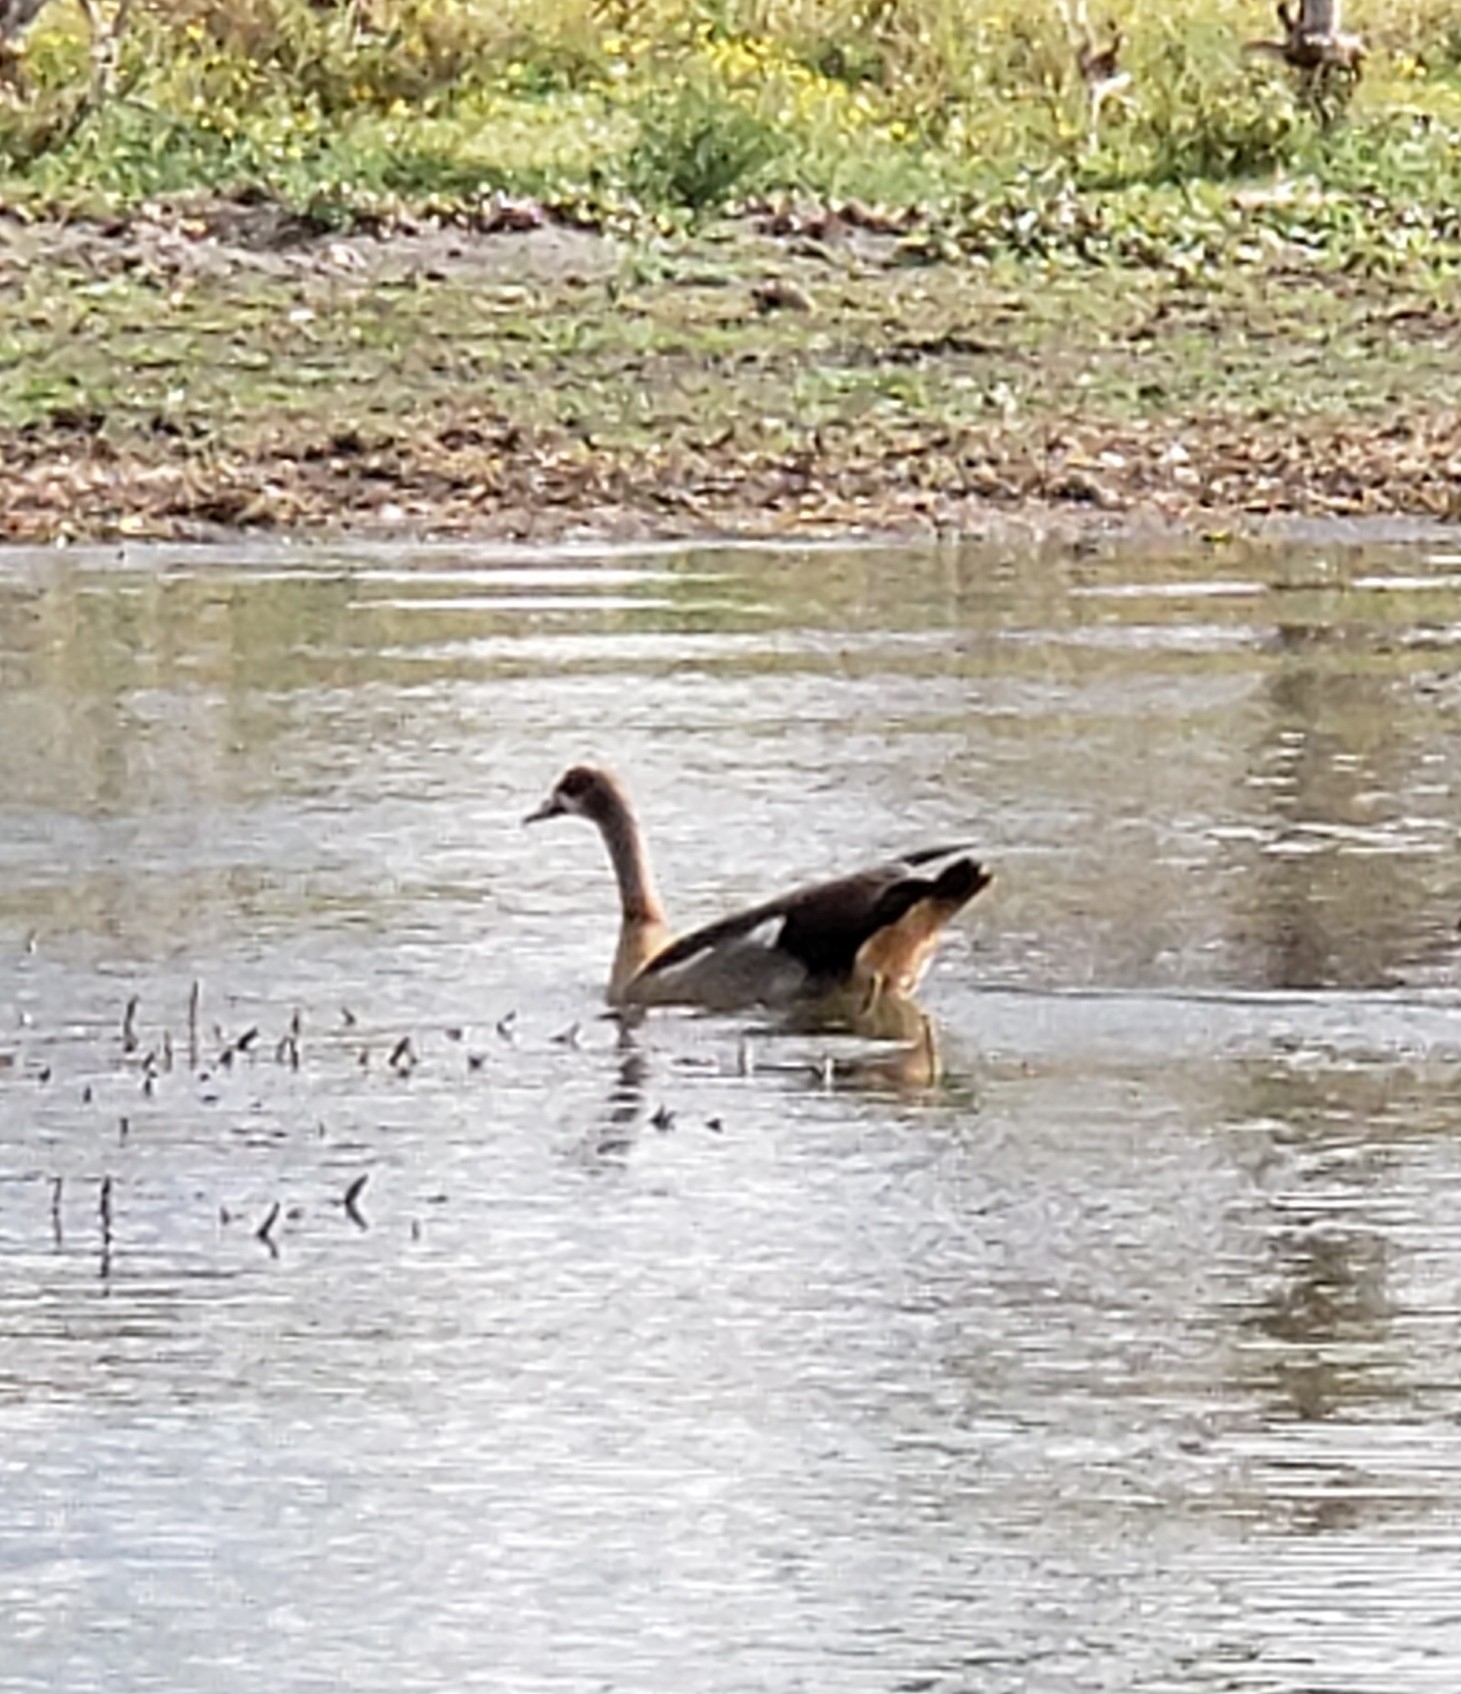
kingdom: Animalia
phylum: Chordata
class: Aves
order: Anseriformes
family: Anatidae
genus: Alopochen
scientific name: Alopochen aegyptiaca
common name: Egyptian goose
